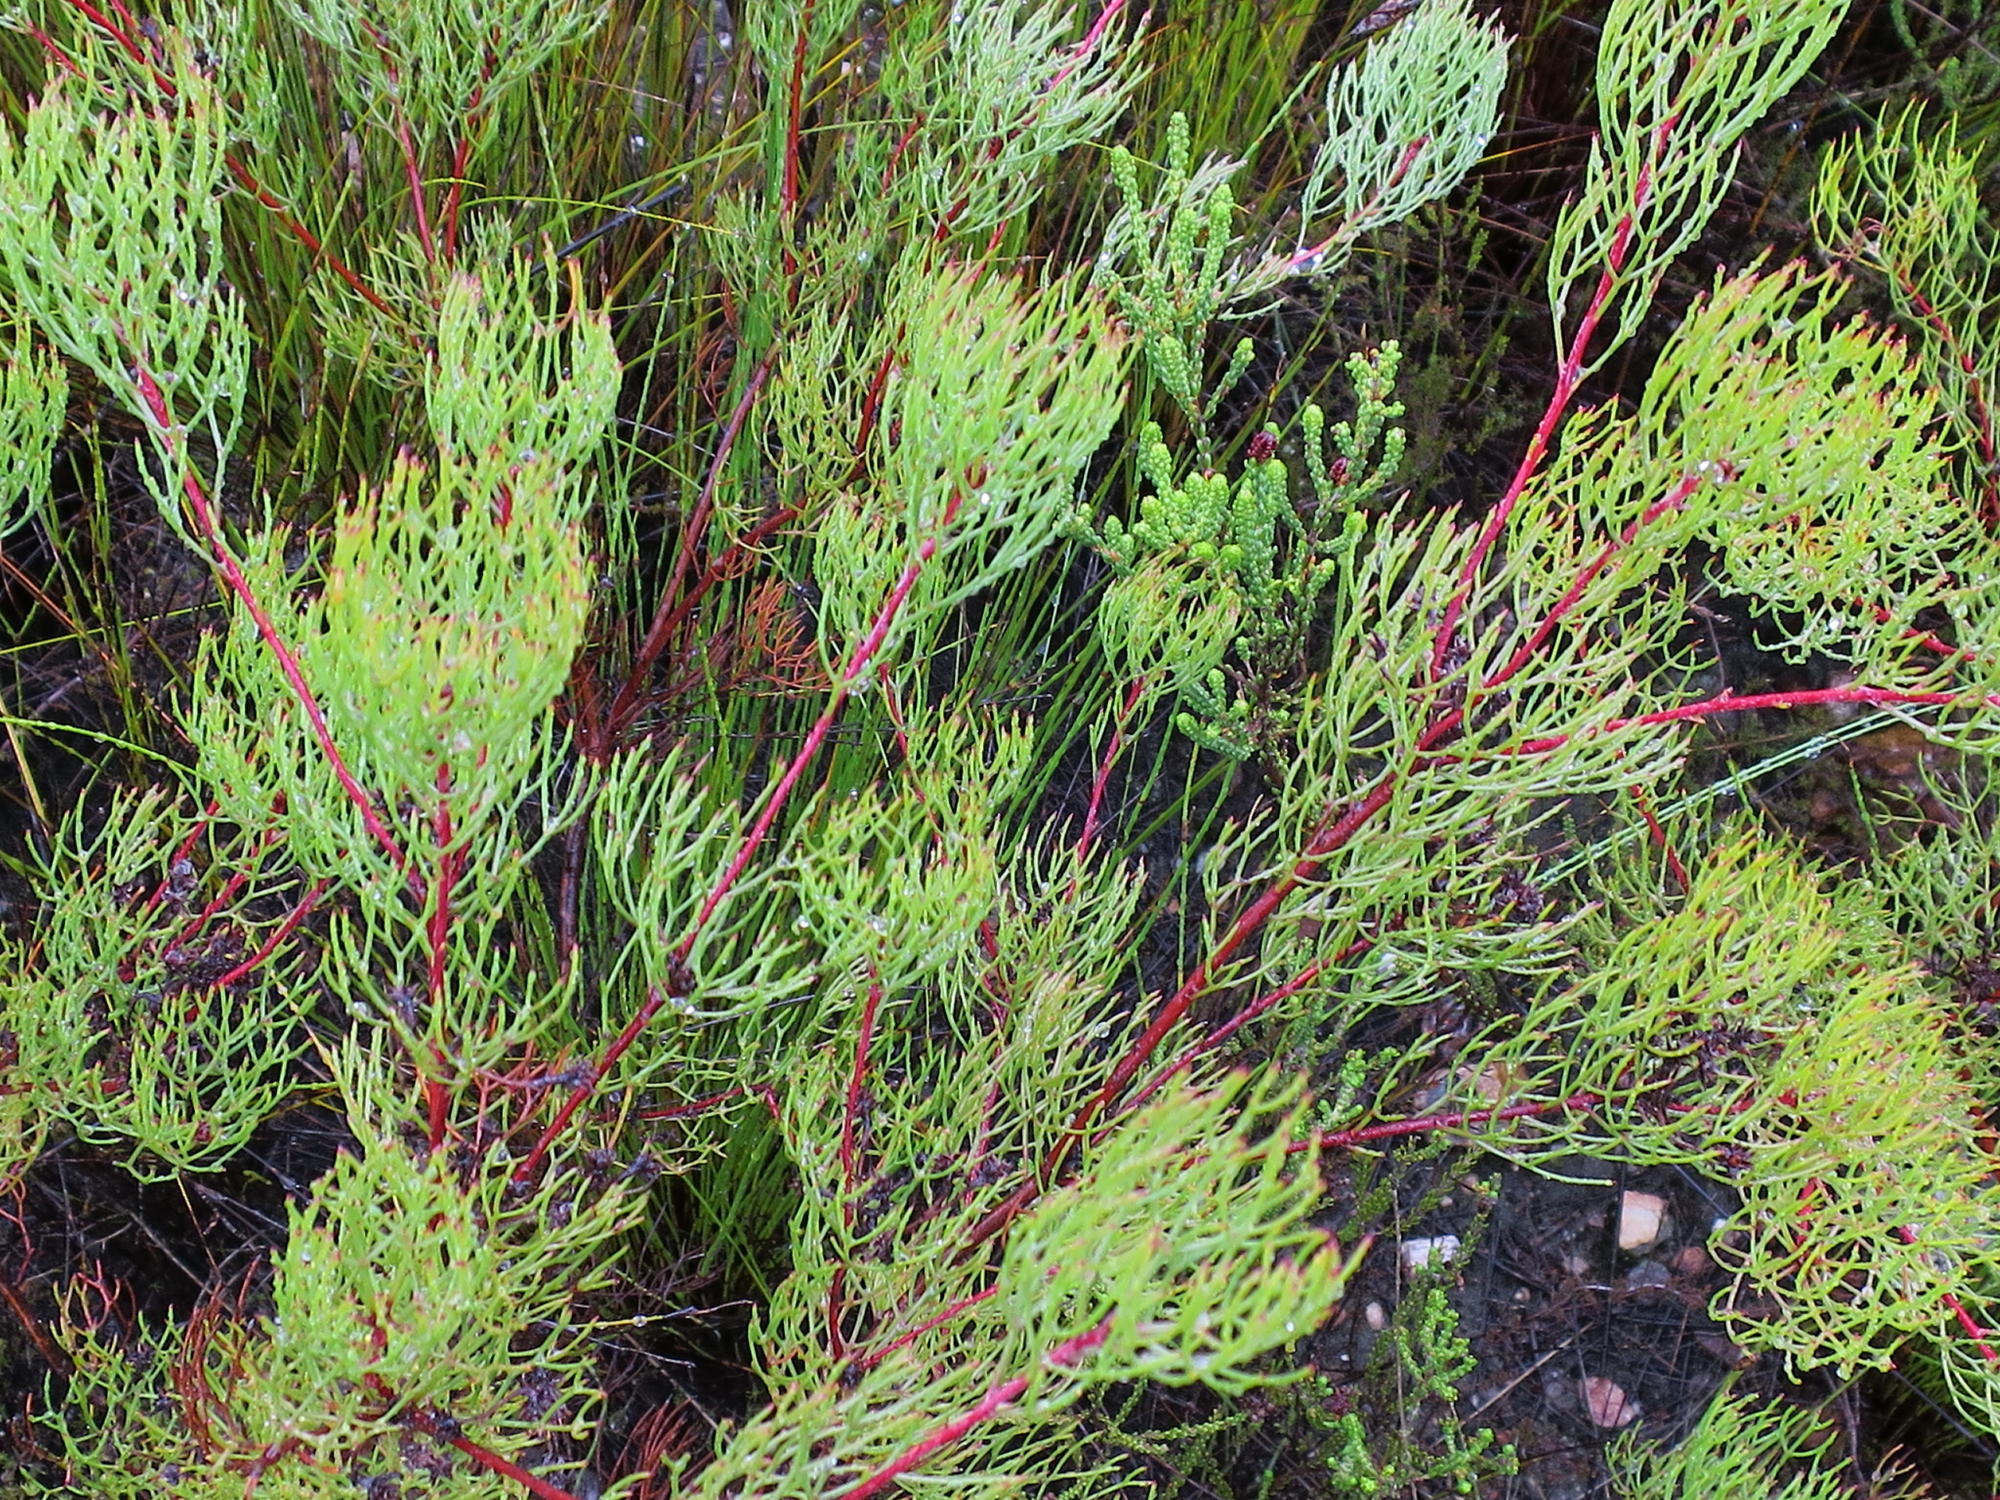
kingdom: Plantae
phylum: Tracheophyta
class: Magnoliopsida
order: Proteales
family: Proteaceae
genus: Serruria
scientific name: Serruria fasciflora
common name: Common pin spiderhead
